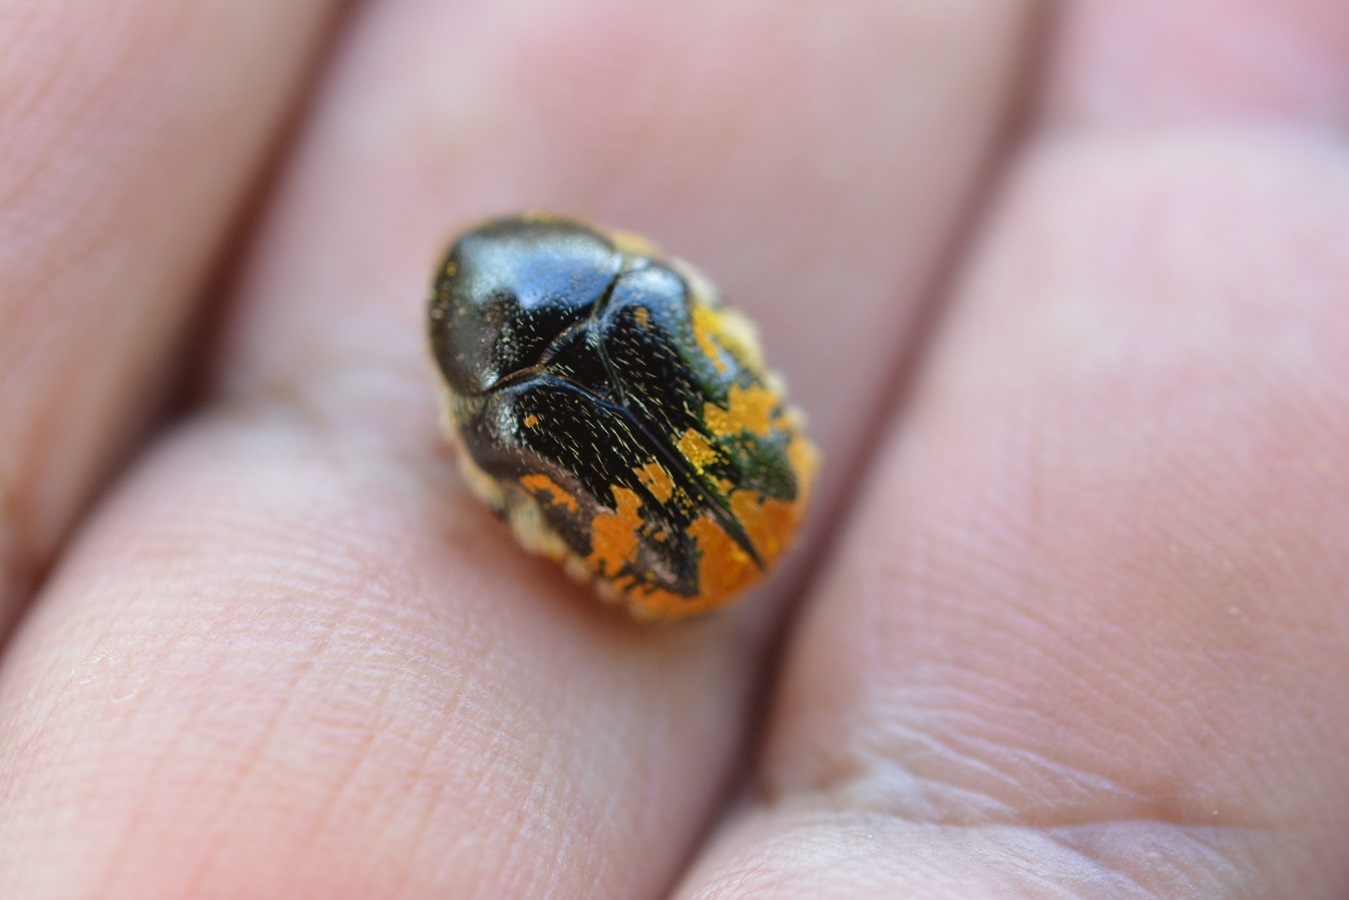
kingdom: Animalia
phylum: Arthropoda
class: Insecta
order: Coleoptera
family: Scarabaeidae
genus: Euphoria
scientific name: Euphoria histrionica
